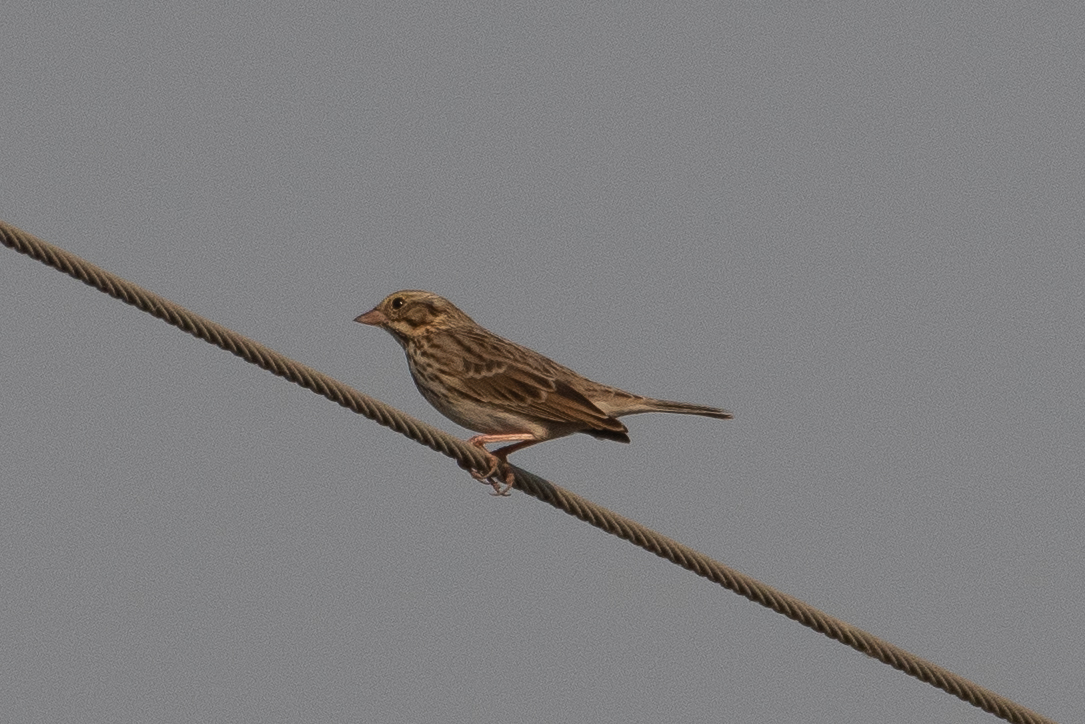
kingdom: Animalia
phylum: Chordata
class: Aves
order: Passeriformes
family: Passerellidae
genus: Passerculus
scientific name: Passerculus sandwichensis
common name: Savannah sparrow
